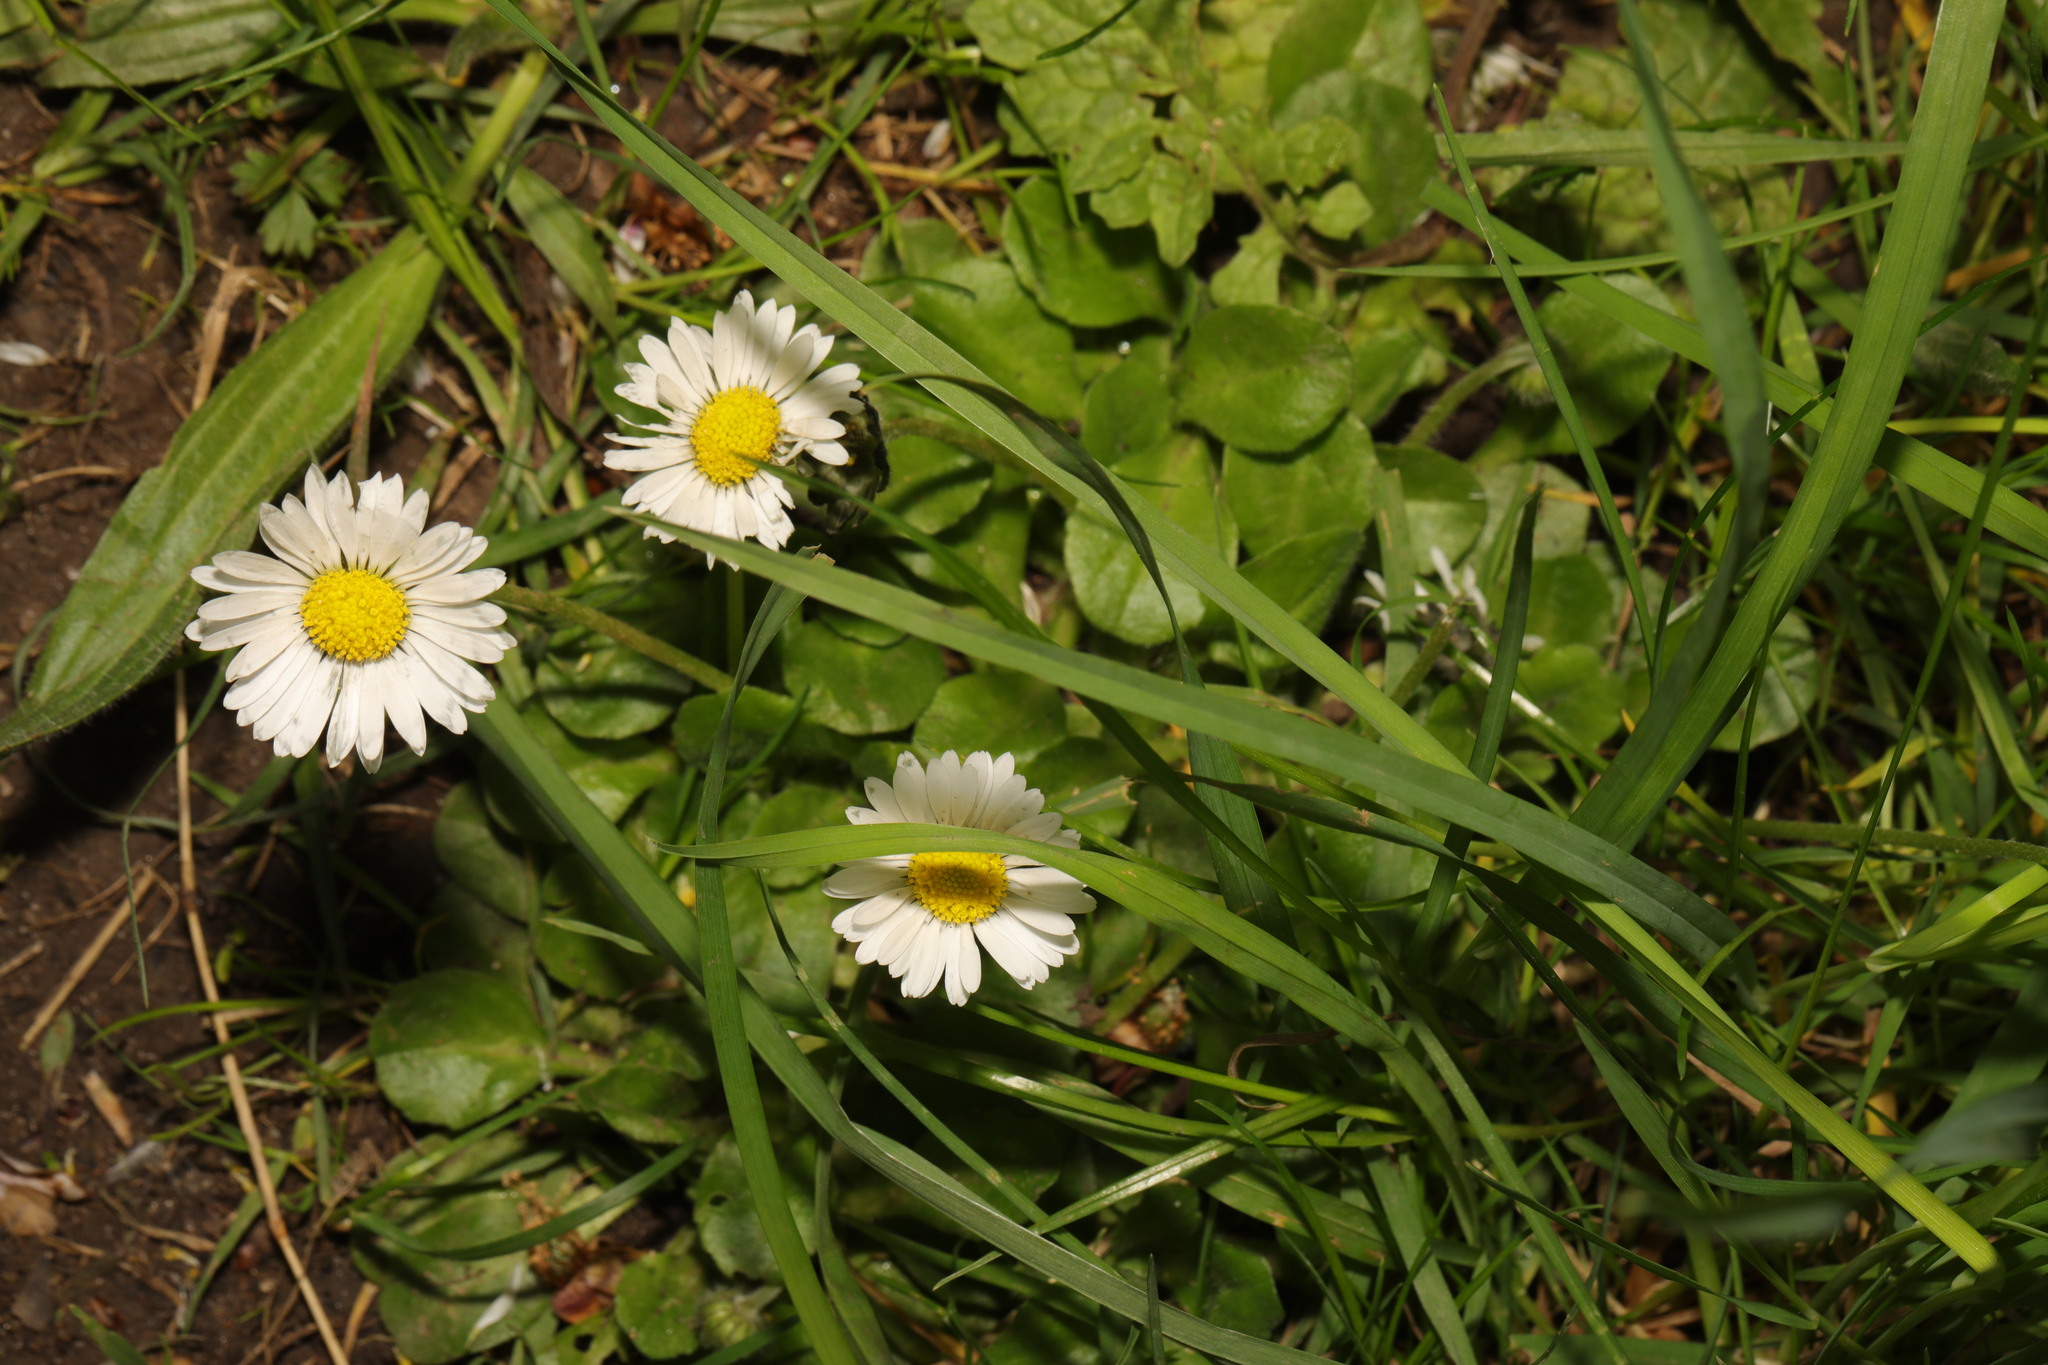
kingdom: Plantae
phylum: Tracheophyta
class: Magnoliopsida
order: Asterales
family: Asteraceae
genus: Bellis
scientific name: Bellis perennis
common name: Lawndaisy
